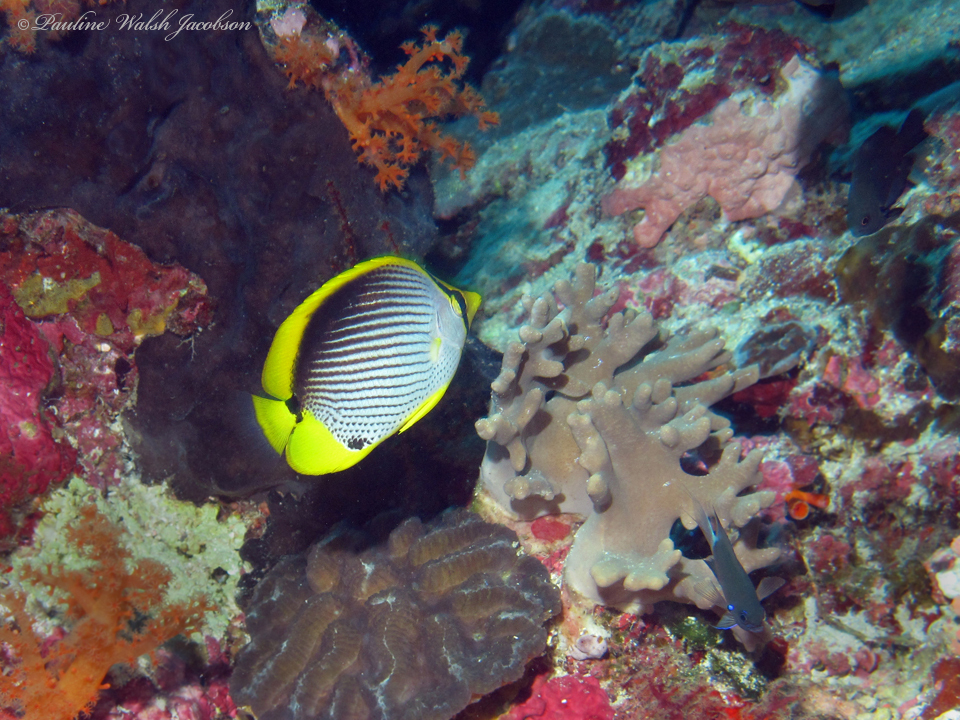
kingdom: Animalia
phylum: Chordata
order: Perciformes
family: Chaetodontidae
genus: Chaetodon
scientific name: Chaetodon melannotus
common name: Blackback butterflyfish
